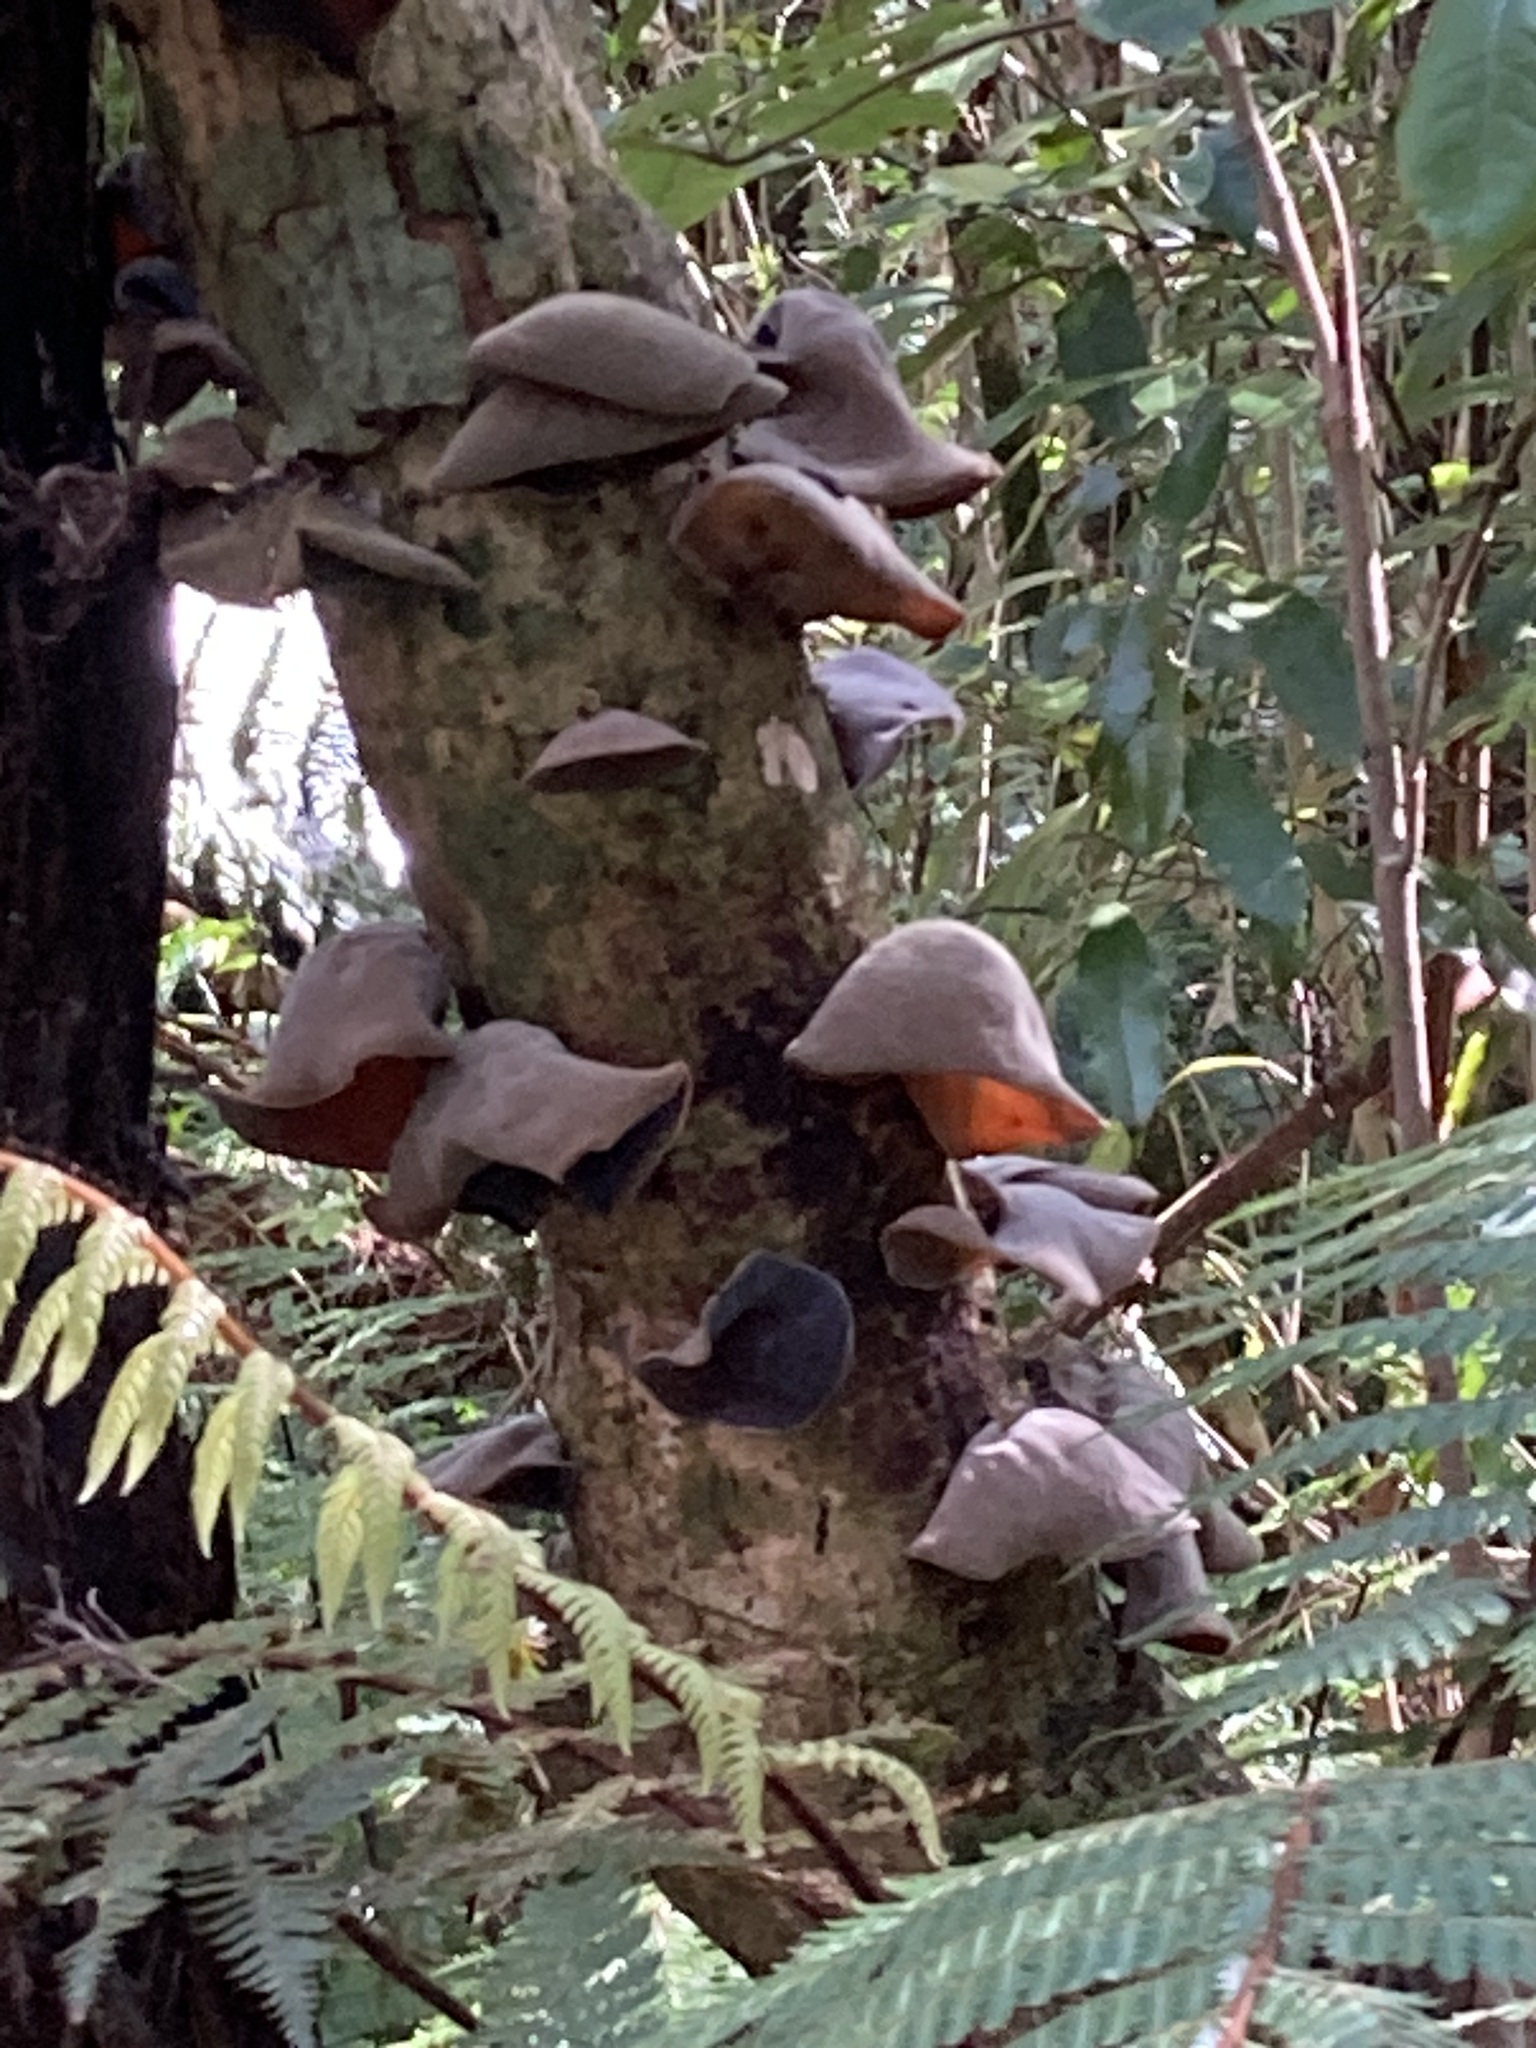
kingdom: Fungi
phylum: Basidiomycota
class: Agaricomycetes
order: Auriculariales
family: Auriculariaceae
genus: Auricularia
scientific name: Auricularia cornea
